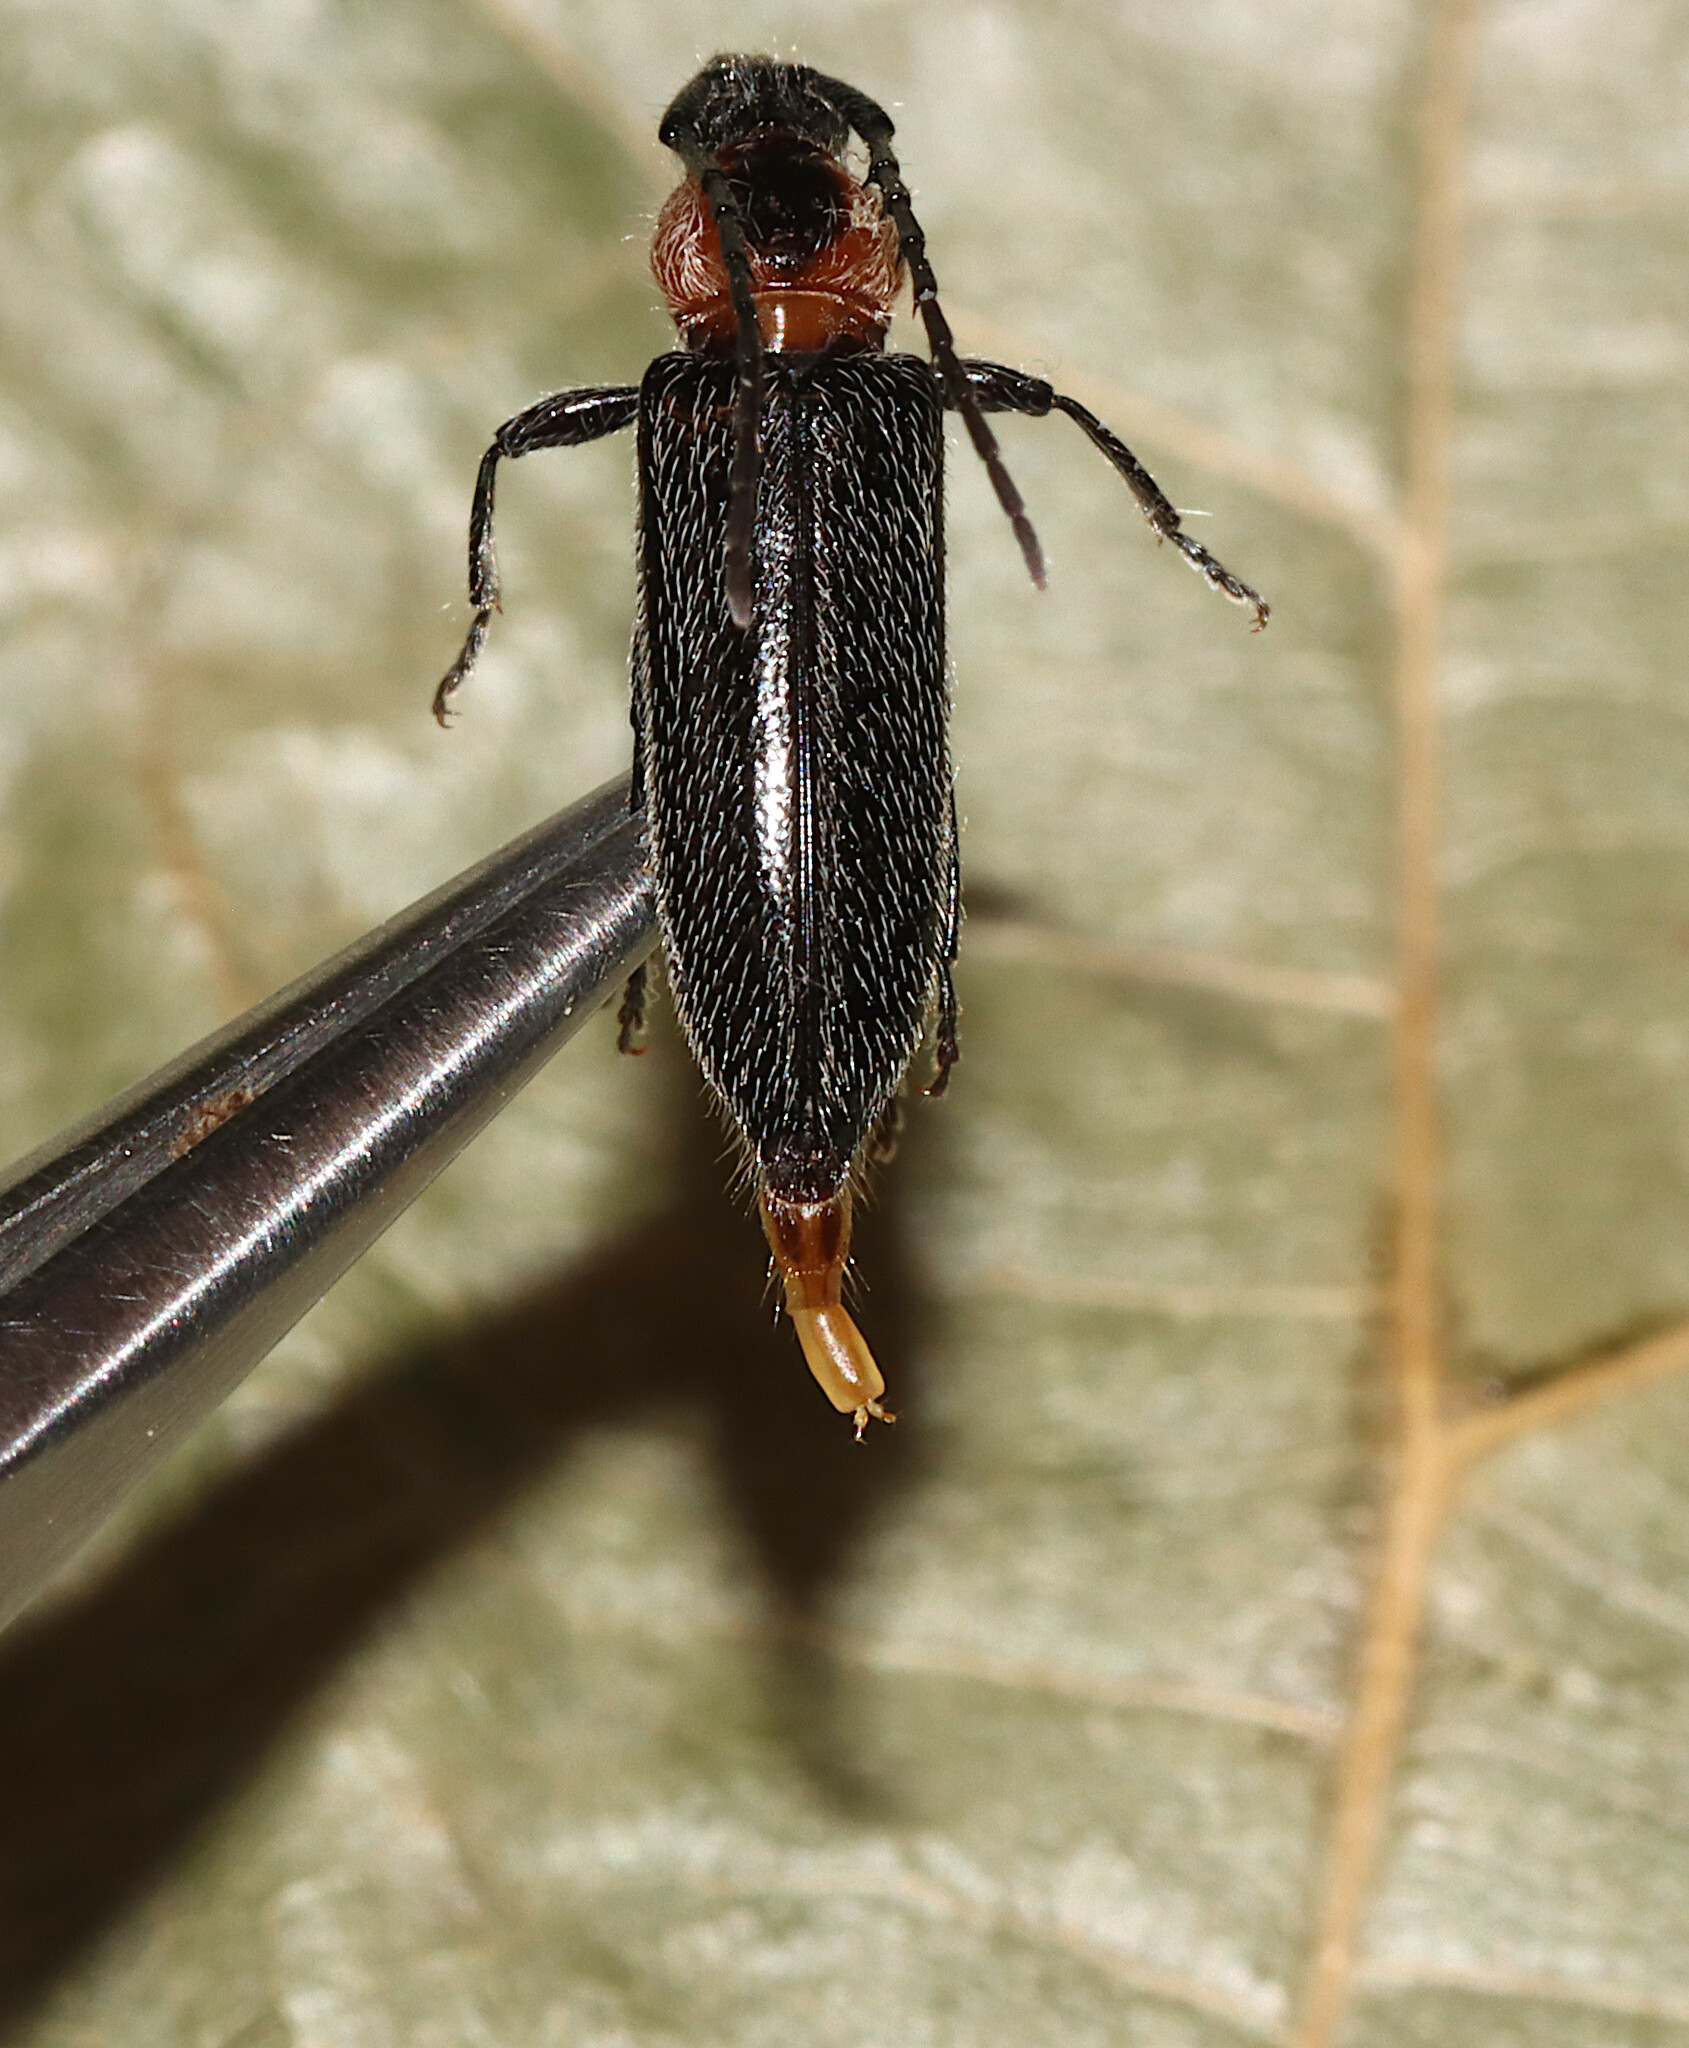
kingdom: Animalia
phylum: Arthropoda
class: Insecta
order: Coleoptera
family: Cerambycidae
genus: Stenosphenus
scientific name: Stenosphenus notatus
